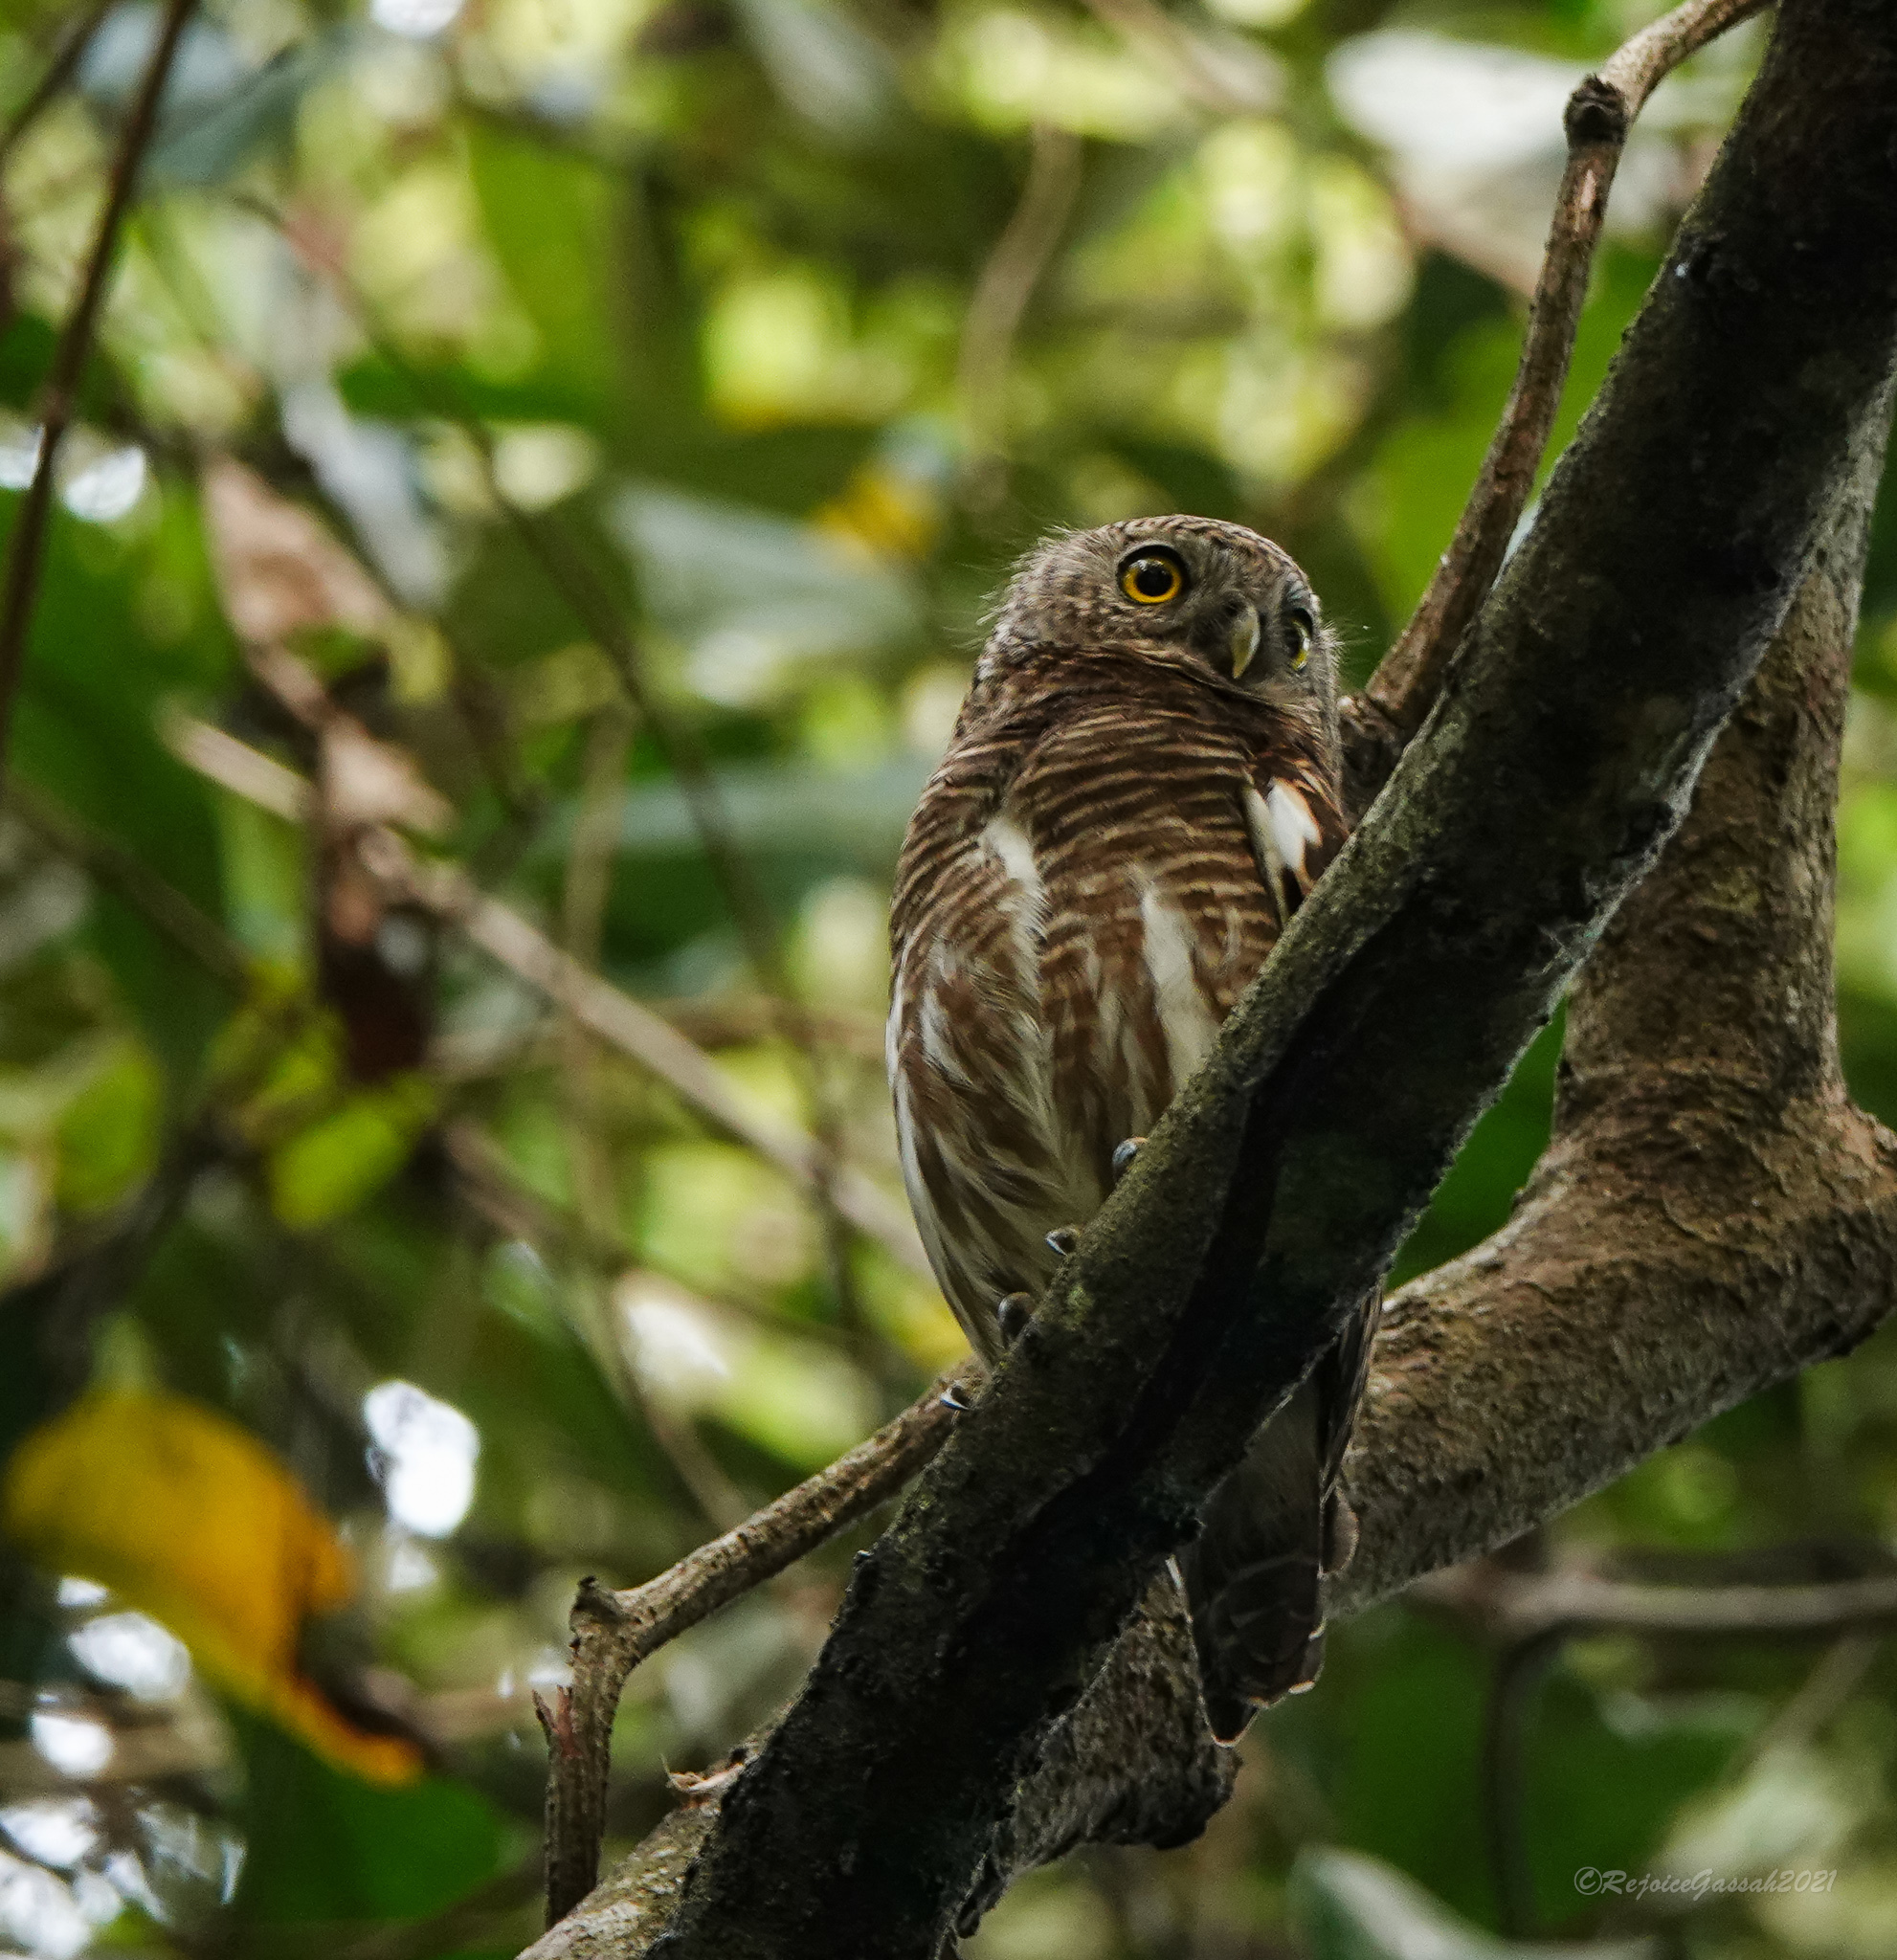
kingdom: Animalia
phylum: Chordata
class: Aves
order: Strigiformes
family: Strigidae
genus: Glaucidium
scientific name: Glaucidium cuculoides
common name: Asian barred owlet
